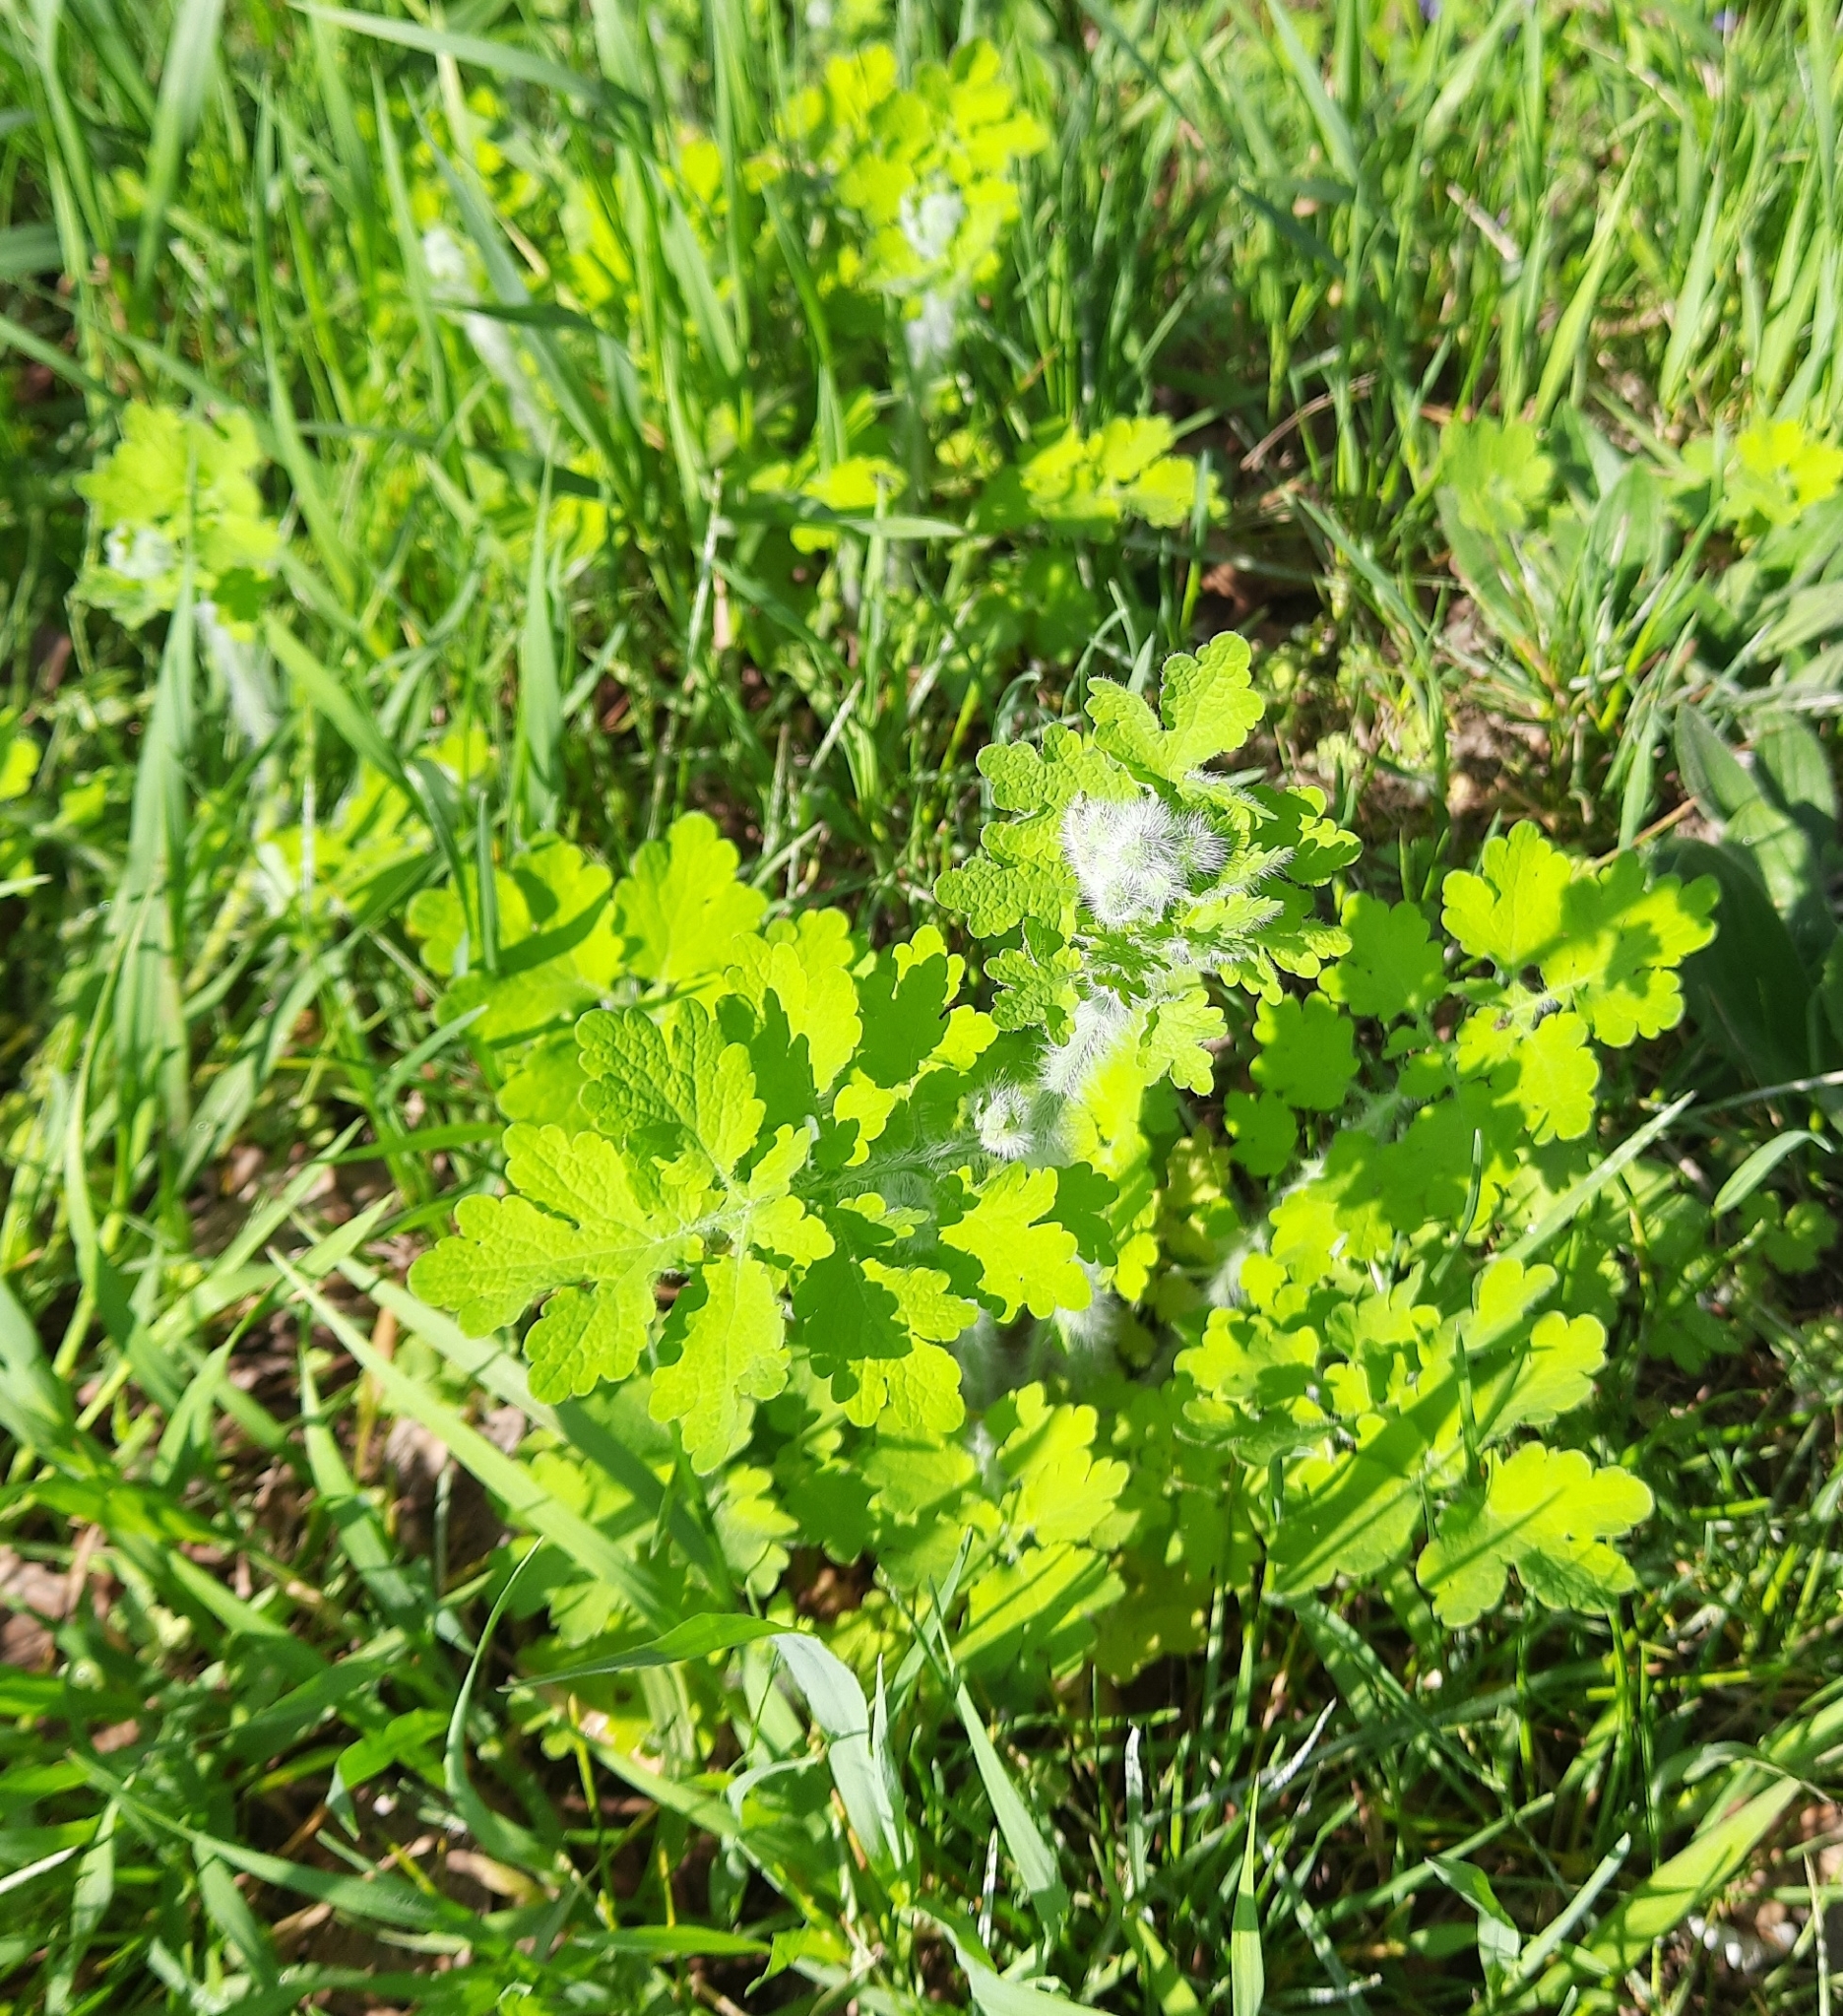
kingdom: Plantae
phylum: Tracheophyta
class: Magnoliopsida
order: Ranunculales
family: Papaveraceae
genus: Chelidonium
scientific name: Chelidonium majus
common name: Greater celandine
